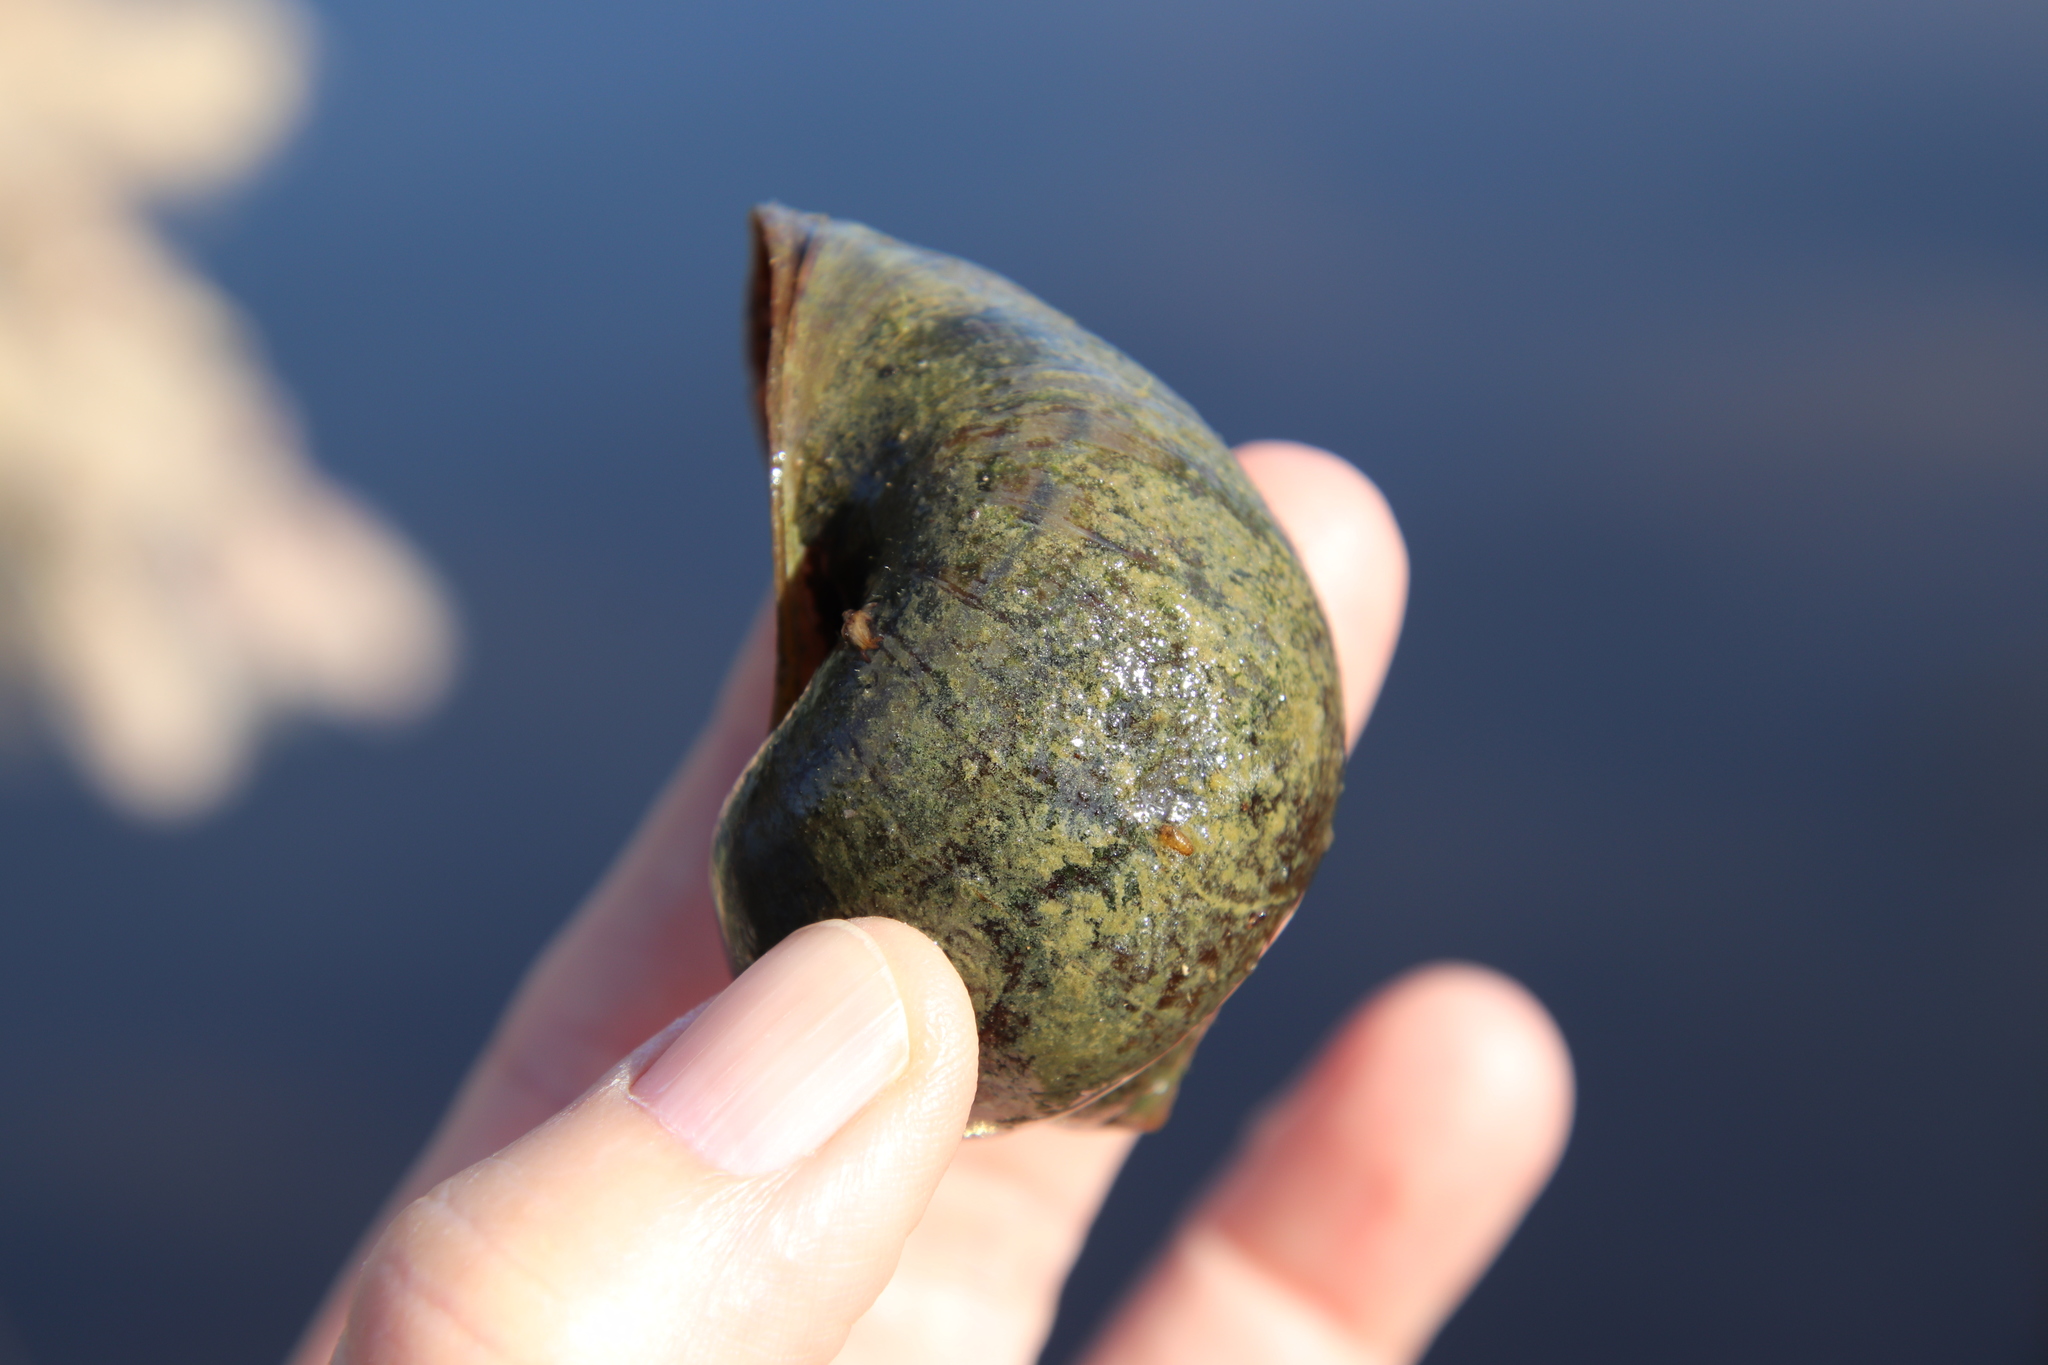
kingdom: Animalia
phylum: Mollusca
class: Gastropoda
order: Architaenioglossa
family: Ampullariidae
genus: Pomacea
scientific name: Pomacea canaliculata
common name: Channeled applesnail
